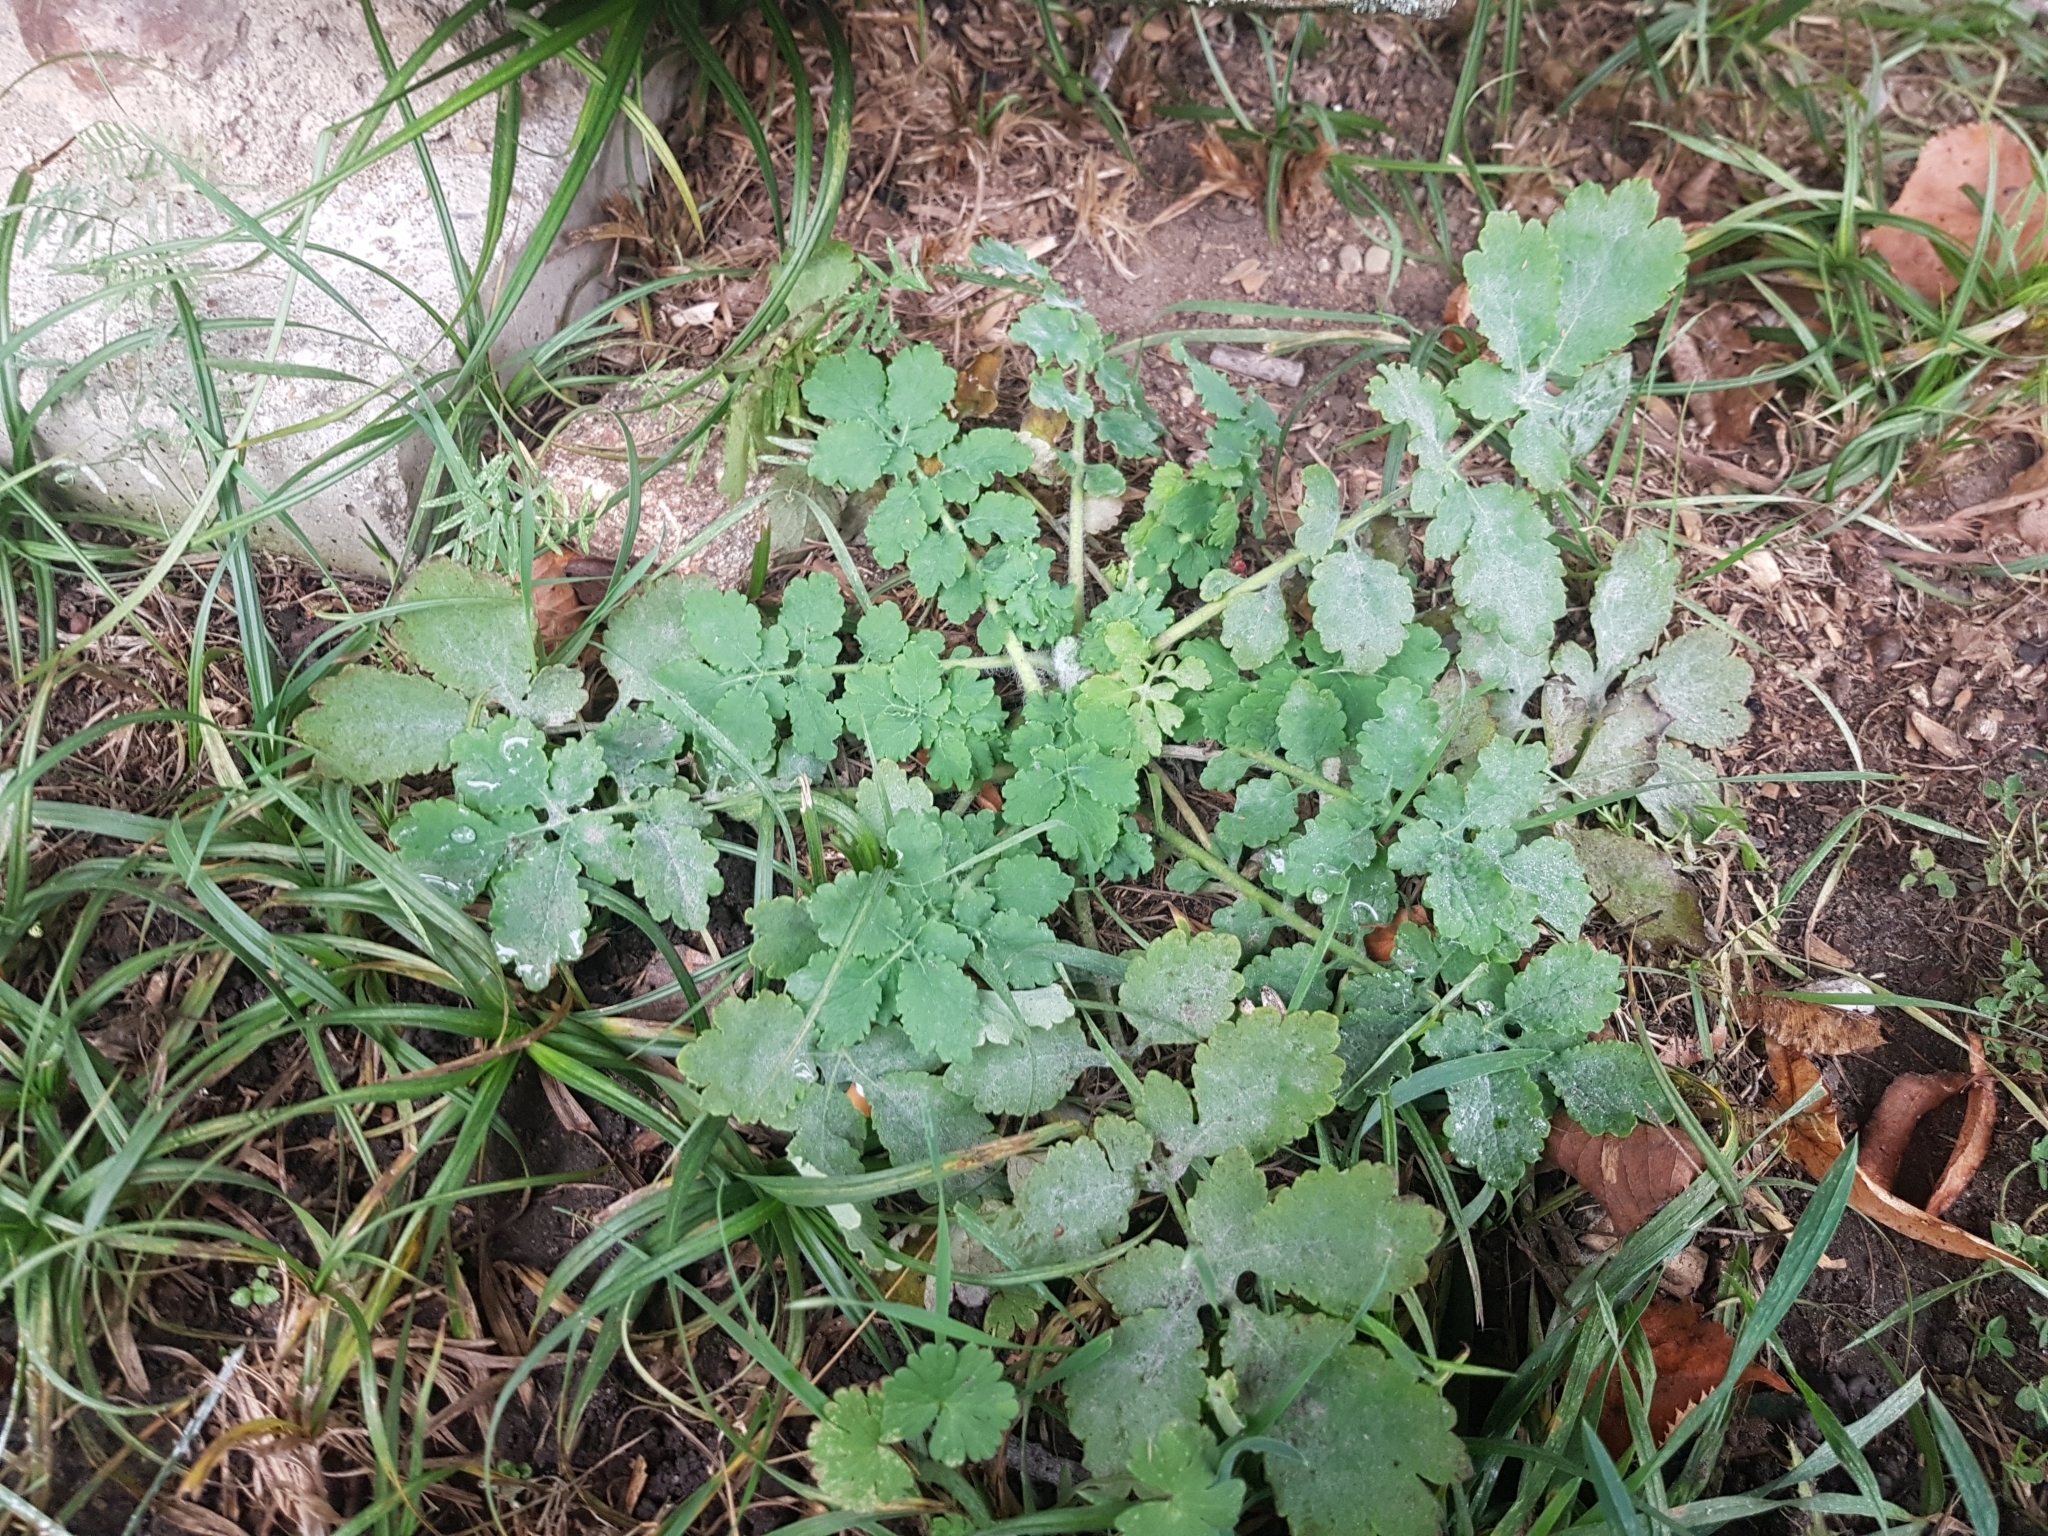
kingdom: Plantae
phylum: Tracheophyta
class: Magnoliopsida
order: Ranunculales
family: Papaveraceae
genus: Chelidonium
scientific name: Chelidonium majus
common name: Greater celandine
